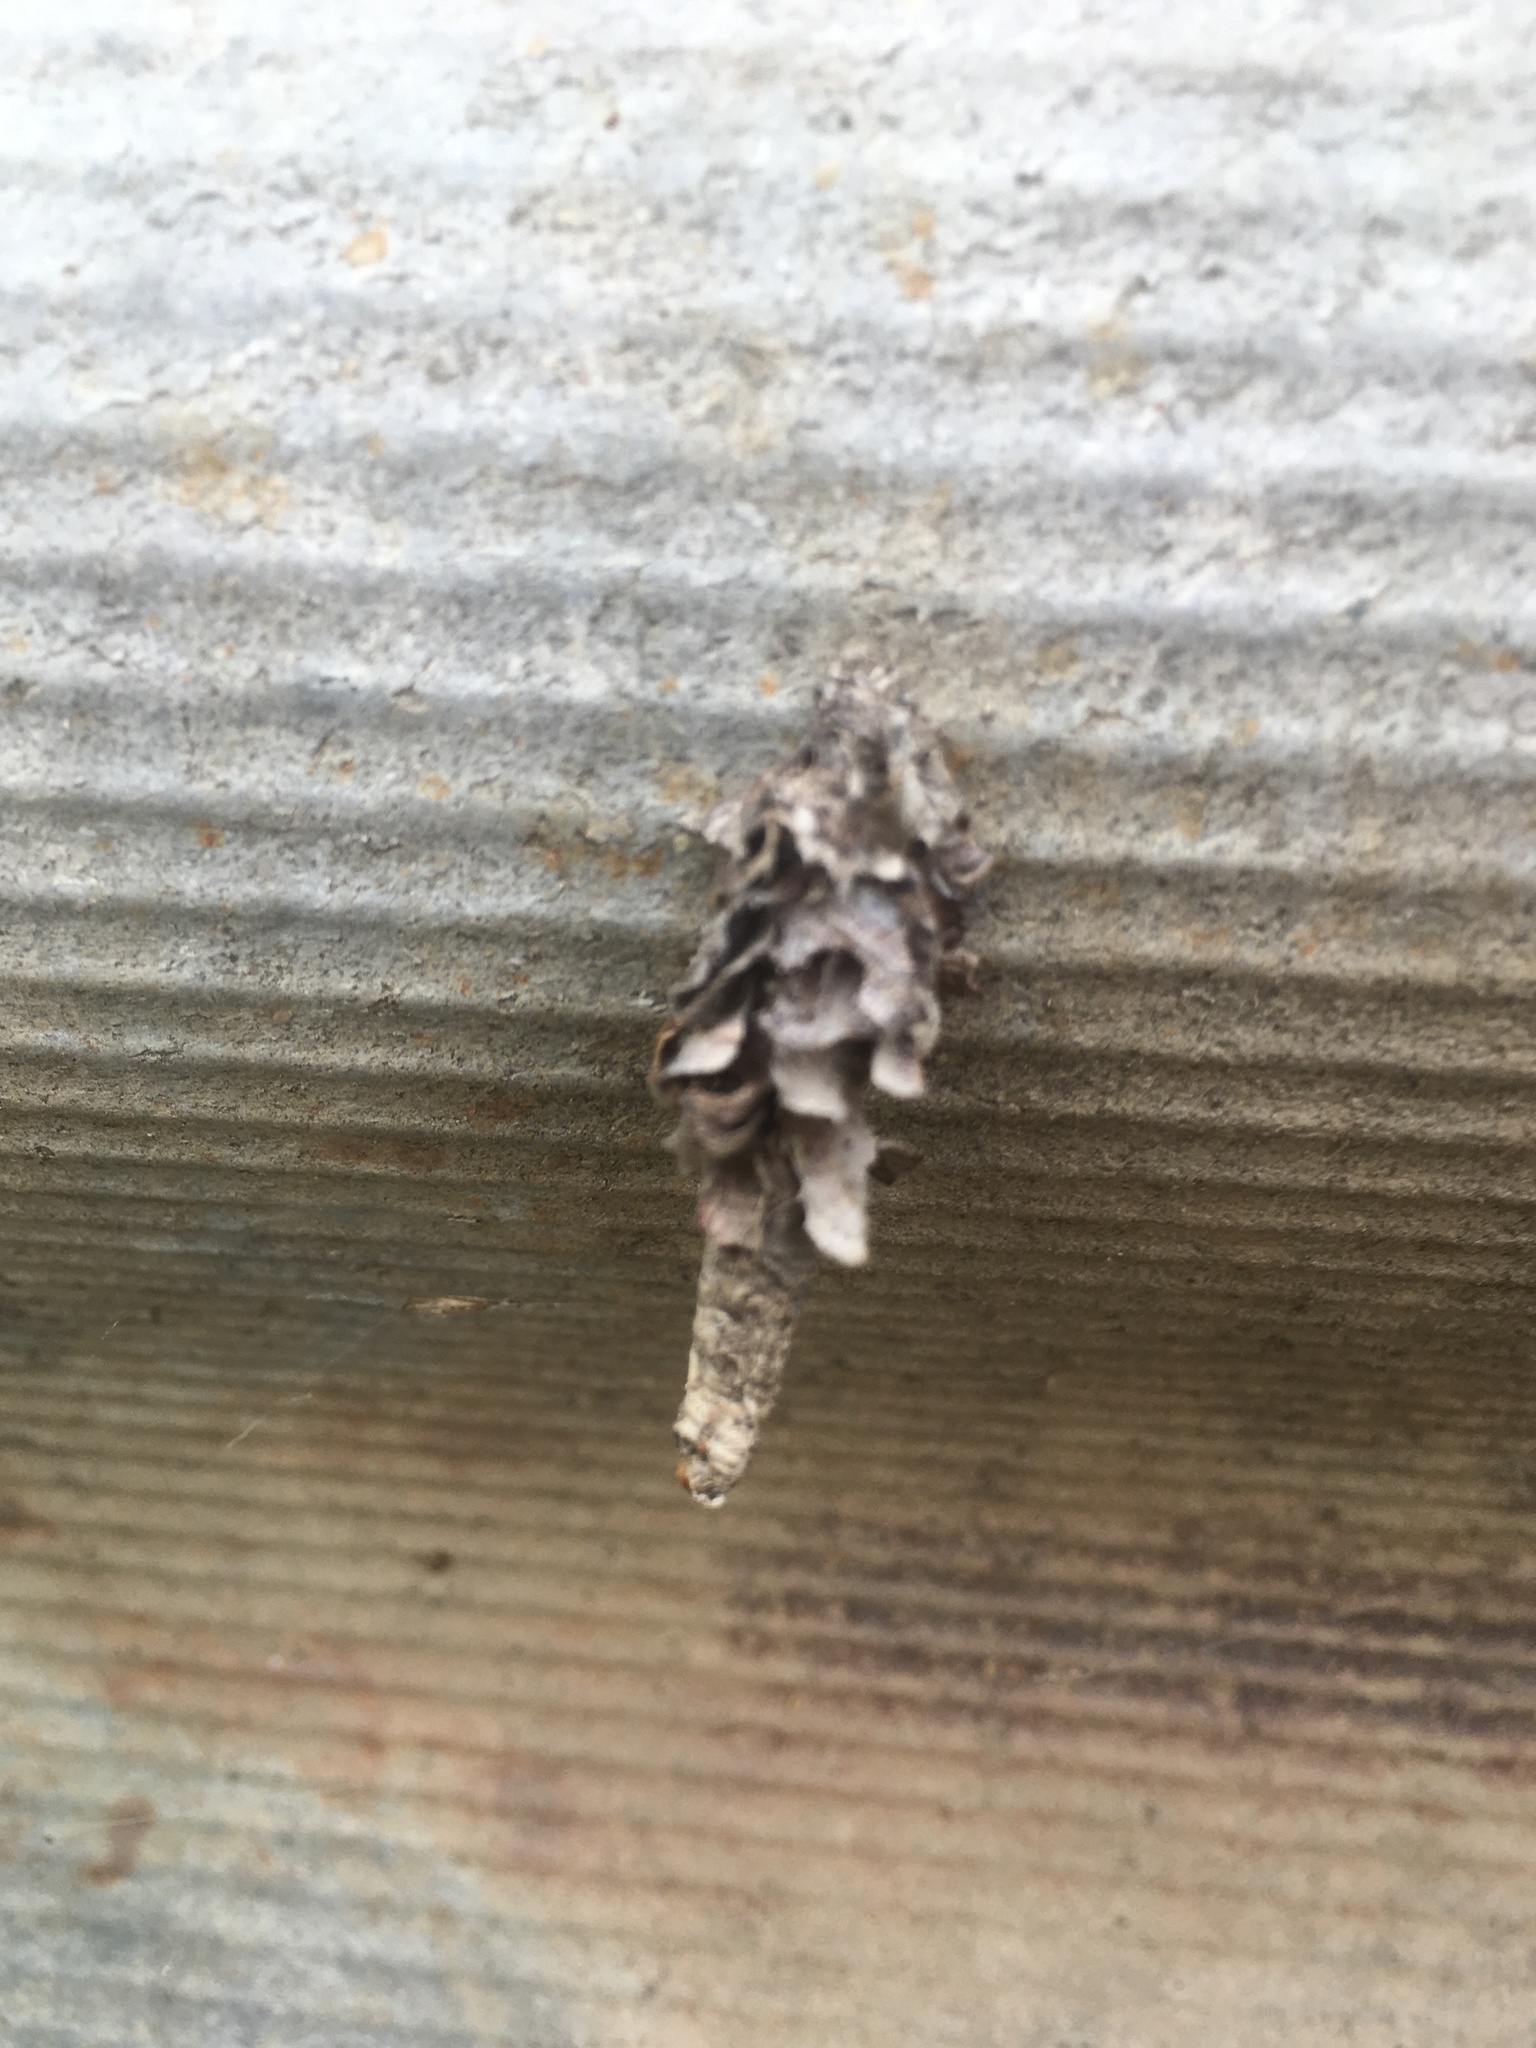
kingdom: Animalia
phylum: Arthropoda
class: Insecta
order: Lepidoptera
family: Psychidae
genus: Canephora
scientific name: Canephora hirsuta
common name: Hairy sweep
